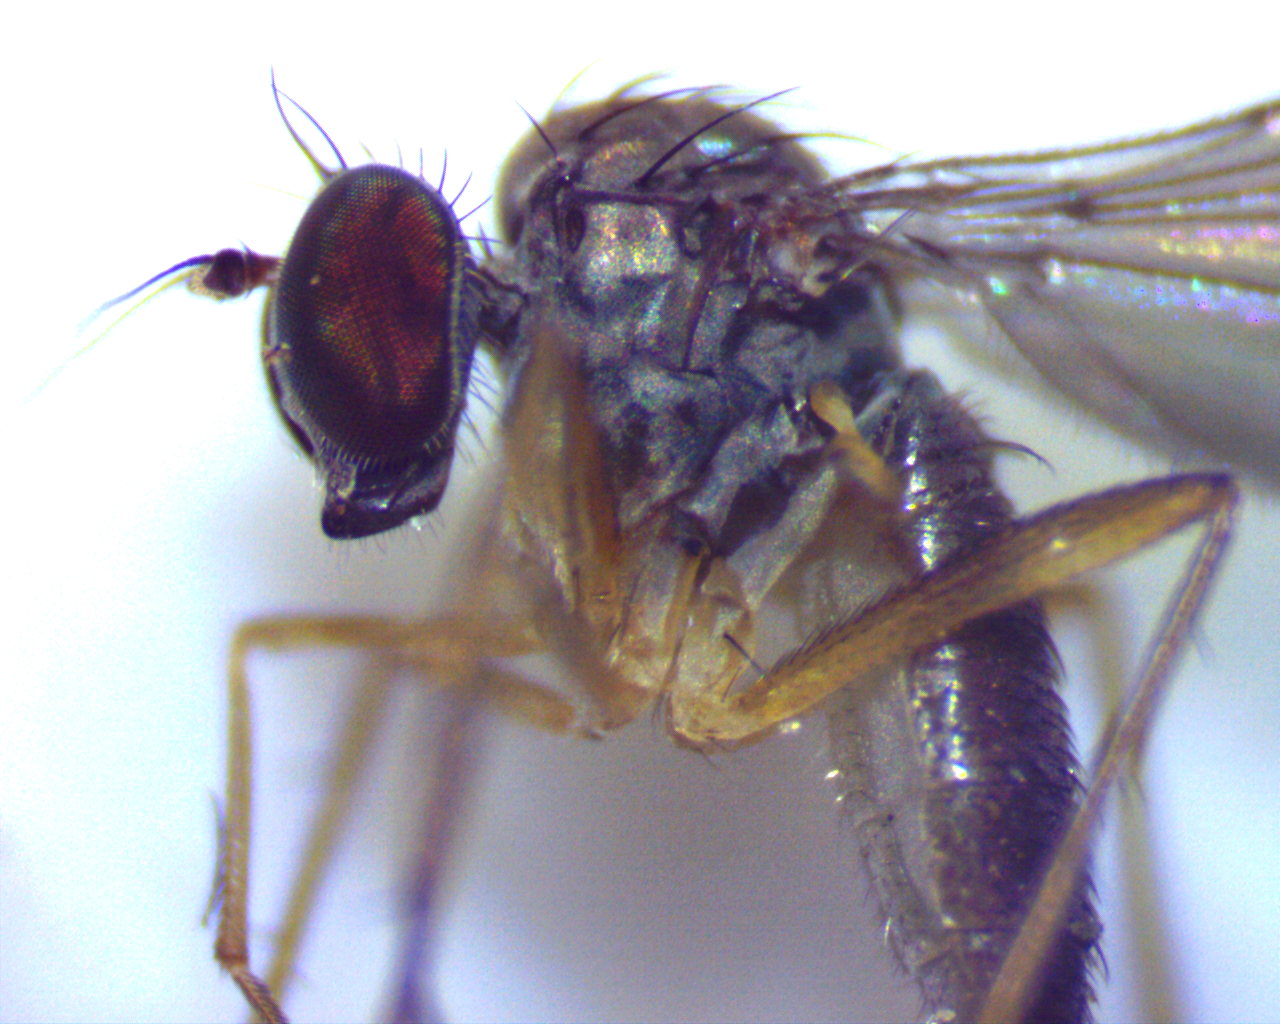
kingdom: Animalia
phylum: Arthropoda
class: Insecta
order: Diptera
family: Dolichopodidae
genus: Sympycnus
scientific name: Sympycnus lineatus
